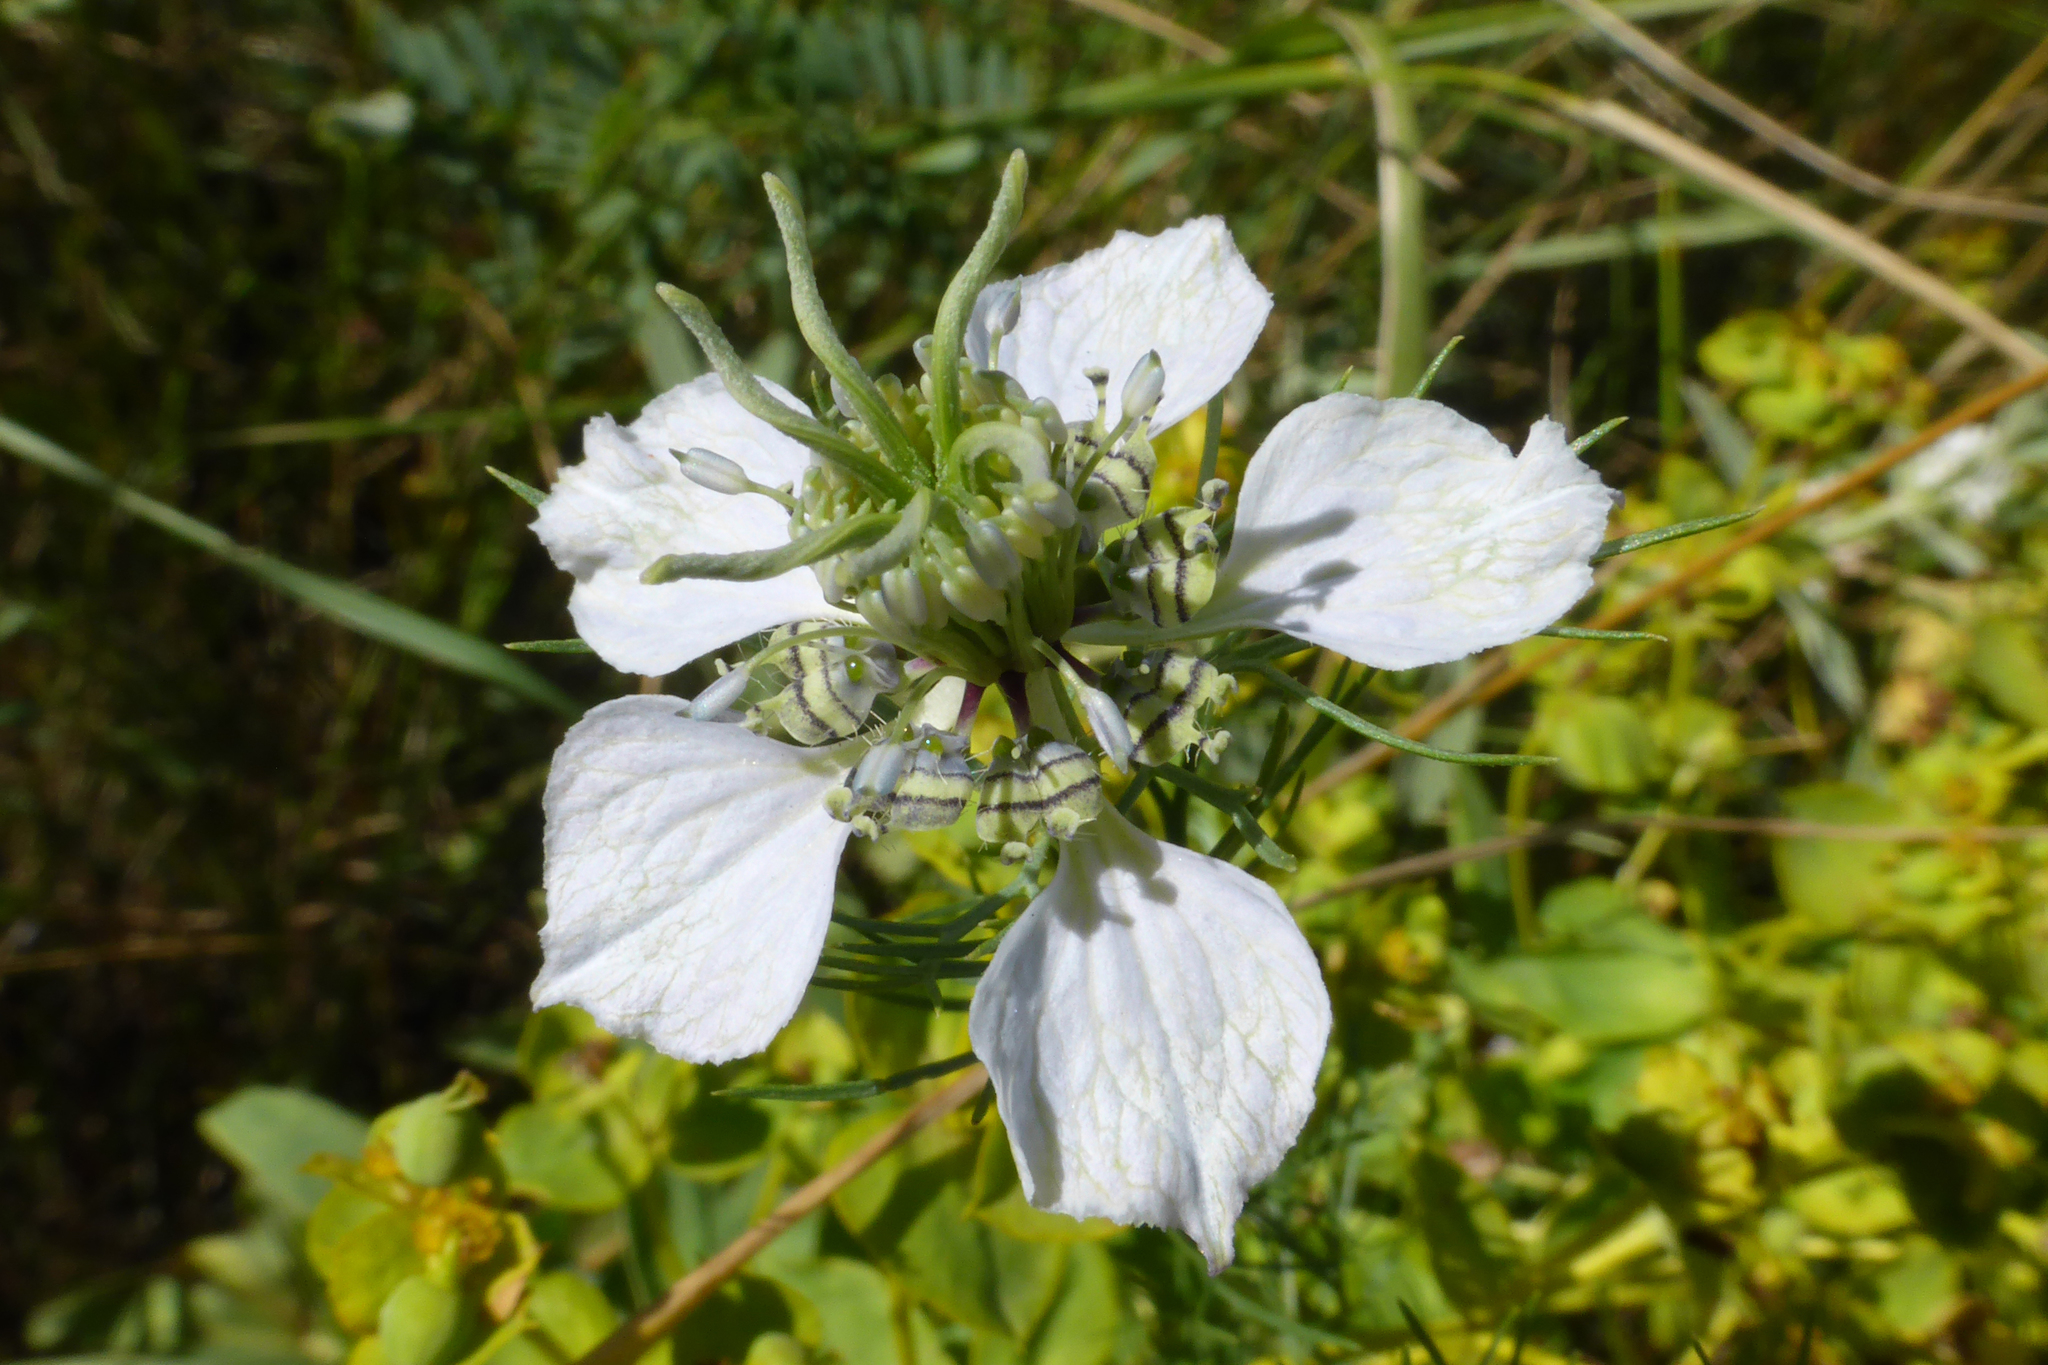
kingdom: Plantae
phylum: Tracheophyta
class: Magnoliopsida
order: Ranunculales
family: Ranunculaceae
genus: Nigella
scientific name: Nigella arvensis
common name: Wild fennel-flower
